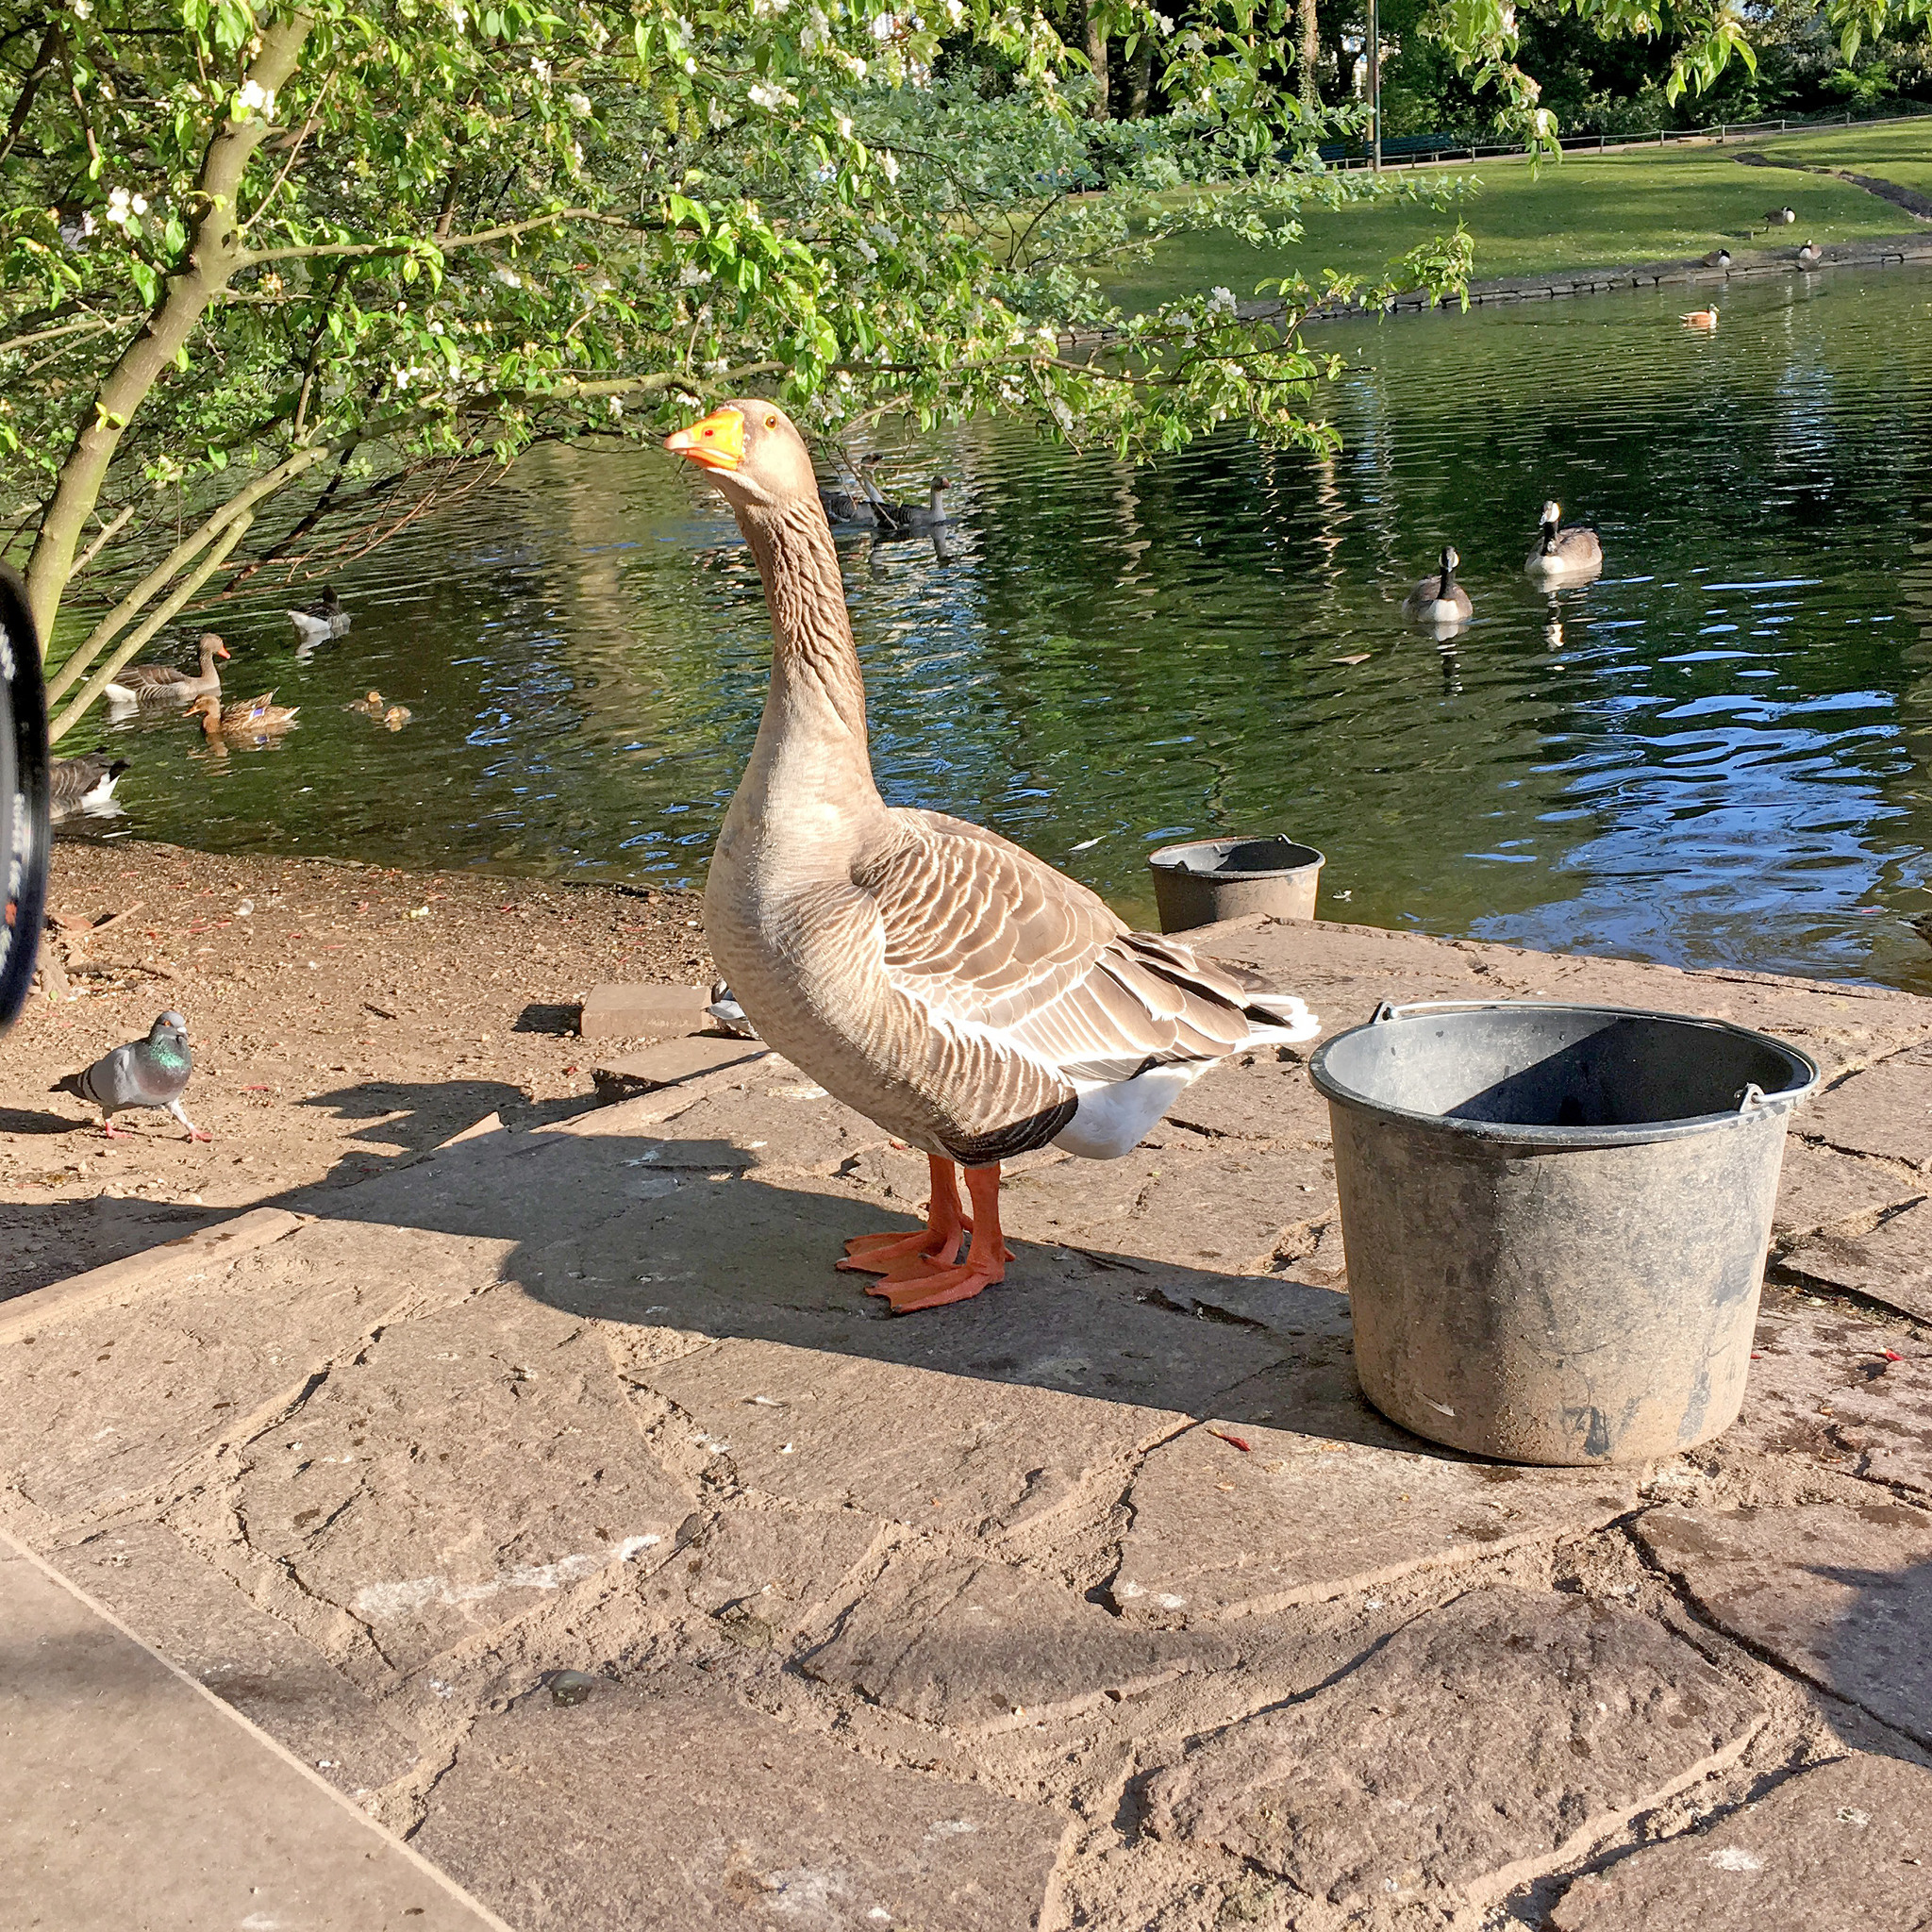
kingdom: Animalia
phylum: Chordata
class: Aves
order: Anseriformes
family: Anatidae
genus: Anser
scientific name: Anser anser
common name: Greylag goose
